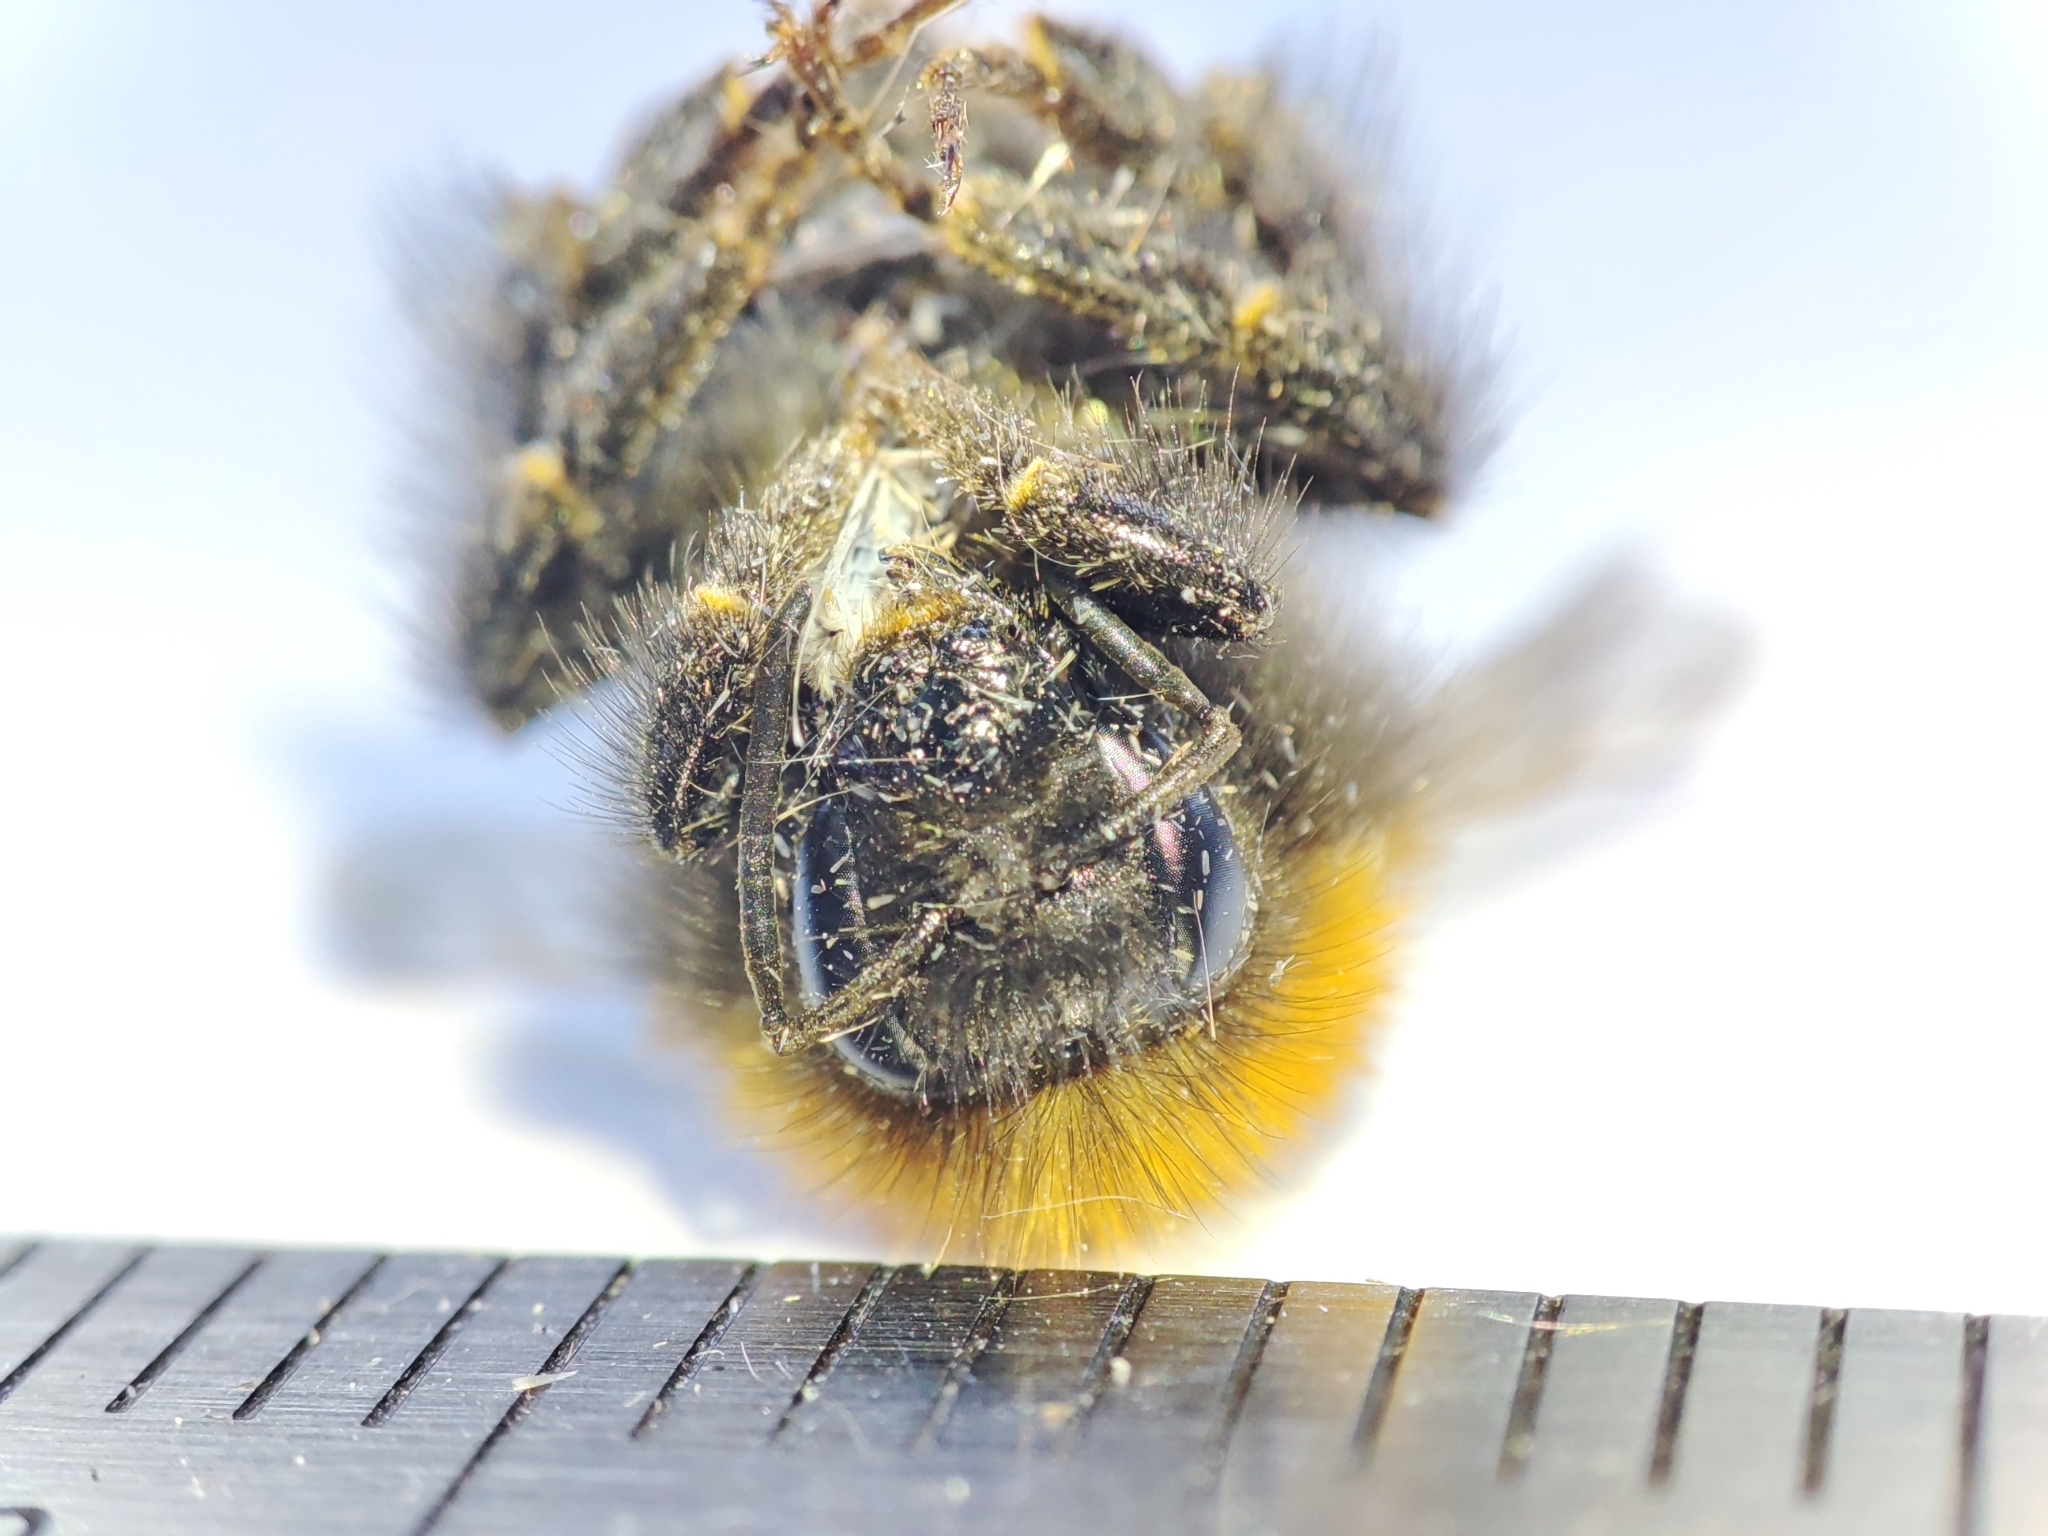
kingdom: Animalia
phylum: Arthropoda
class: Insecta
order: Hymenoptera
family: Apidae
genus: Bombus
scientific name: Bombus hypnorum
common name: New garden bumblebee
